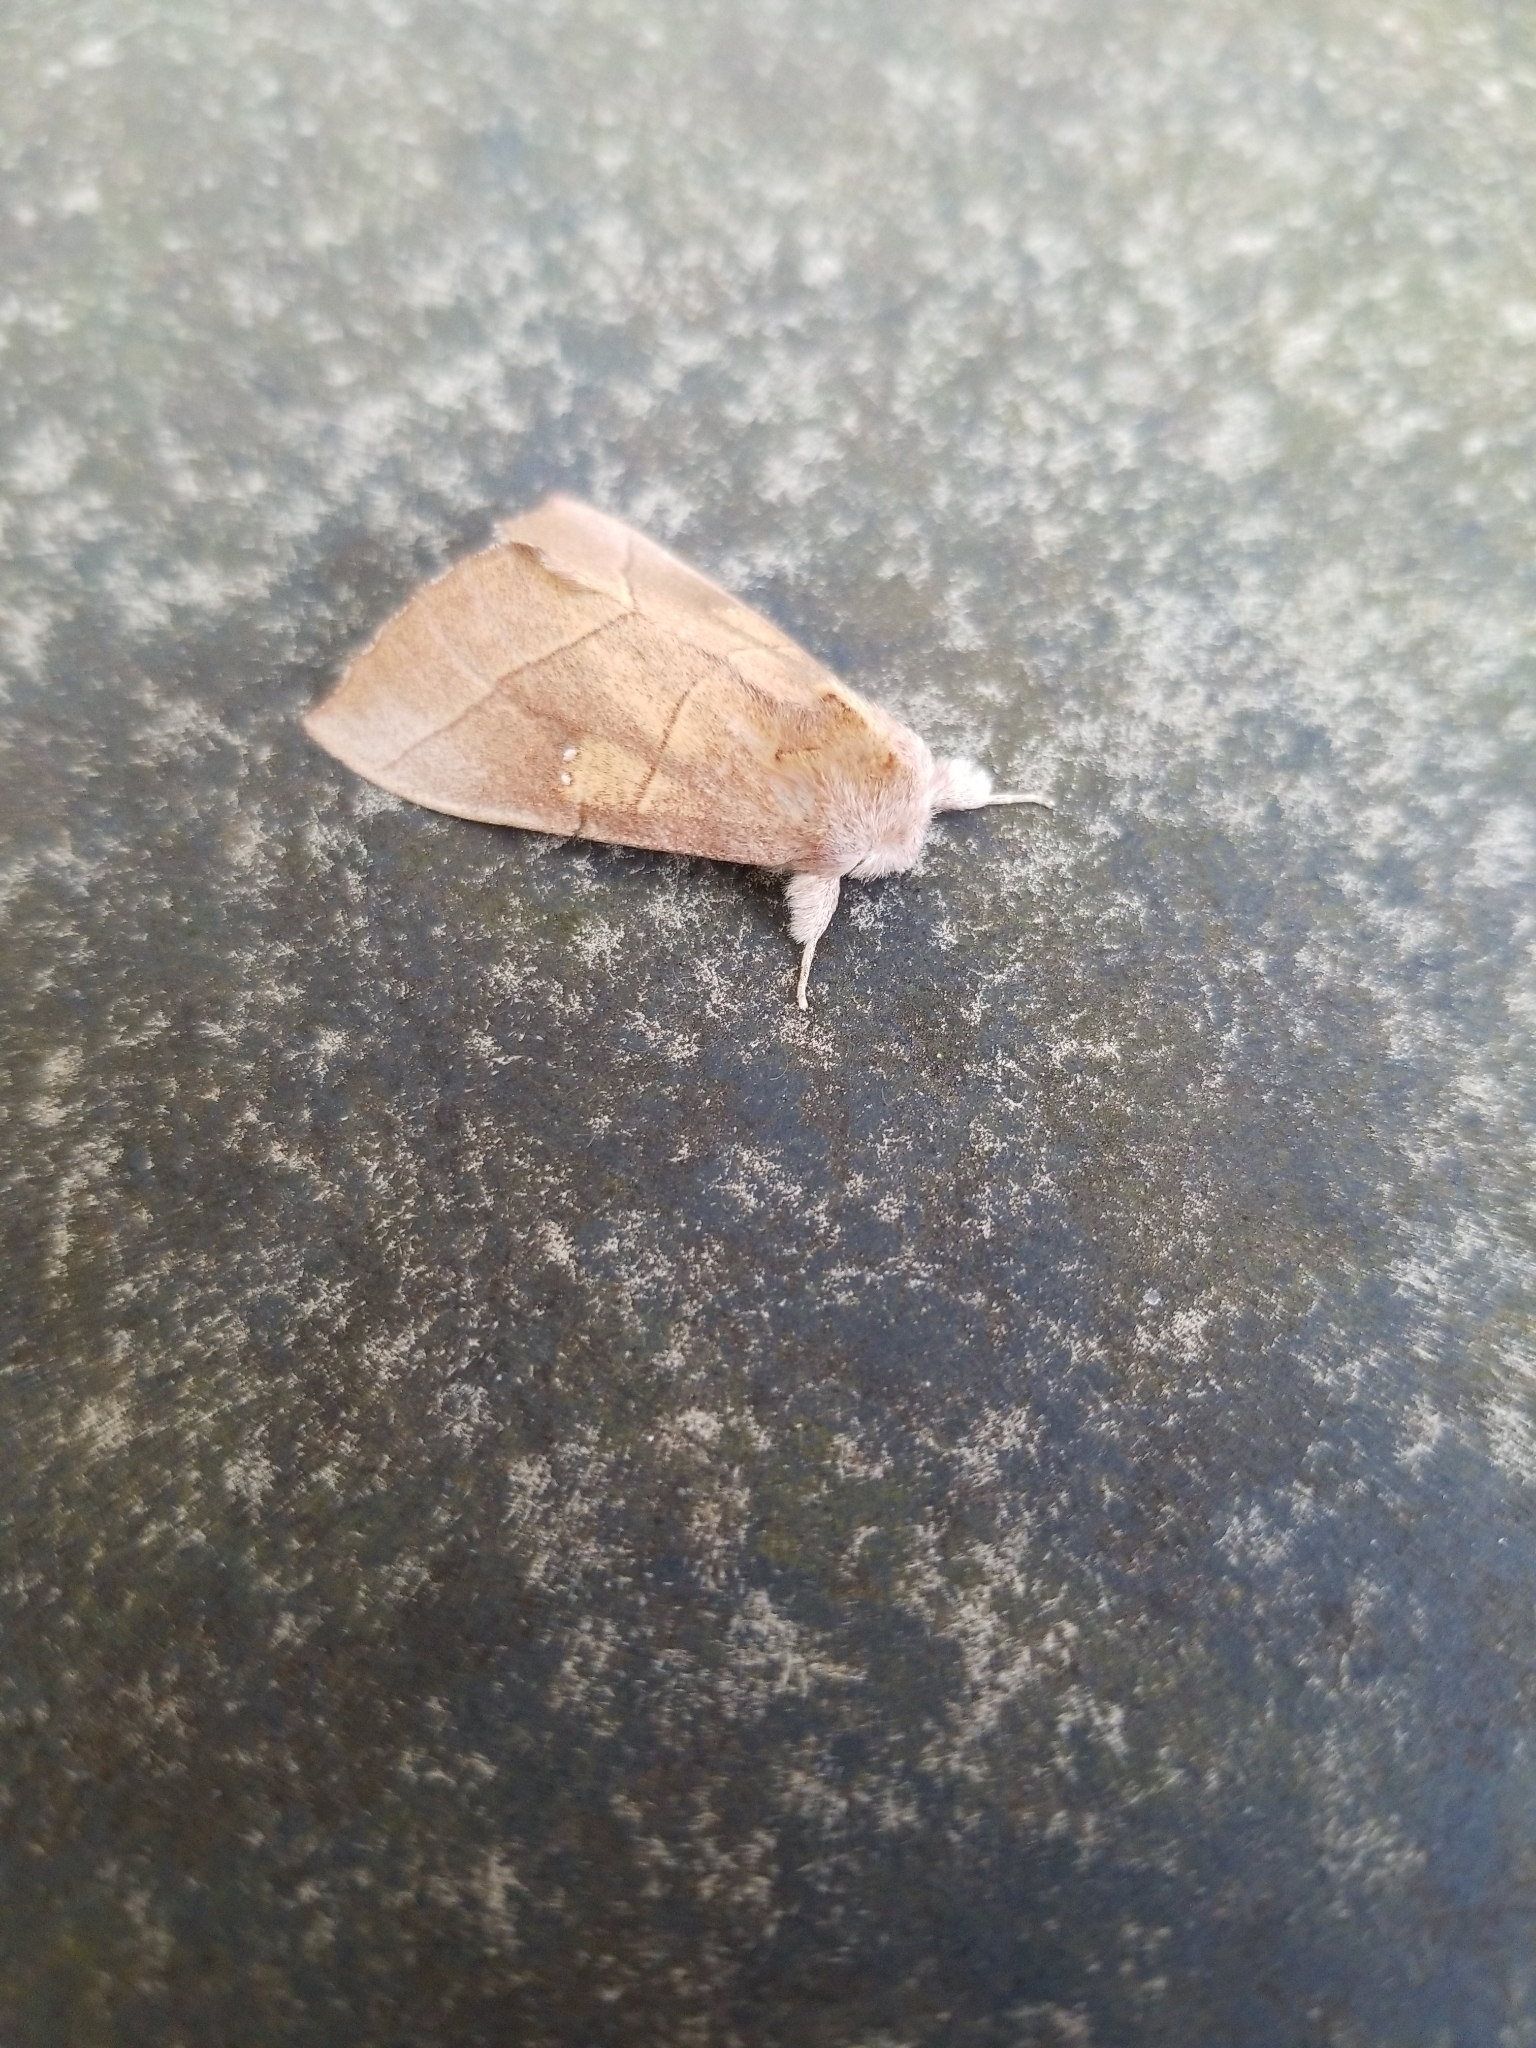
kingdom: Animalia
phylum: Arthropoda
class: Insecta
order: Lepidoptera
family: Notodontidae
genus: Nadata
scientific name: Nadata gibbosa
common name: White-dotted prominent
